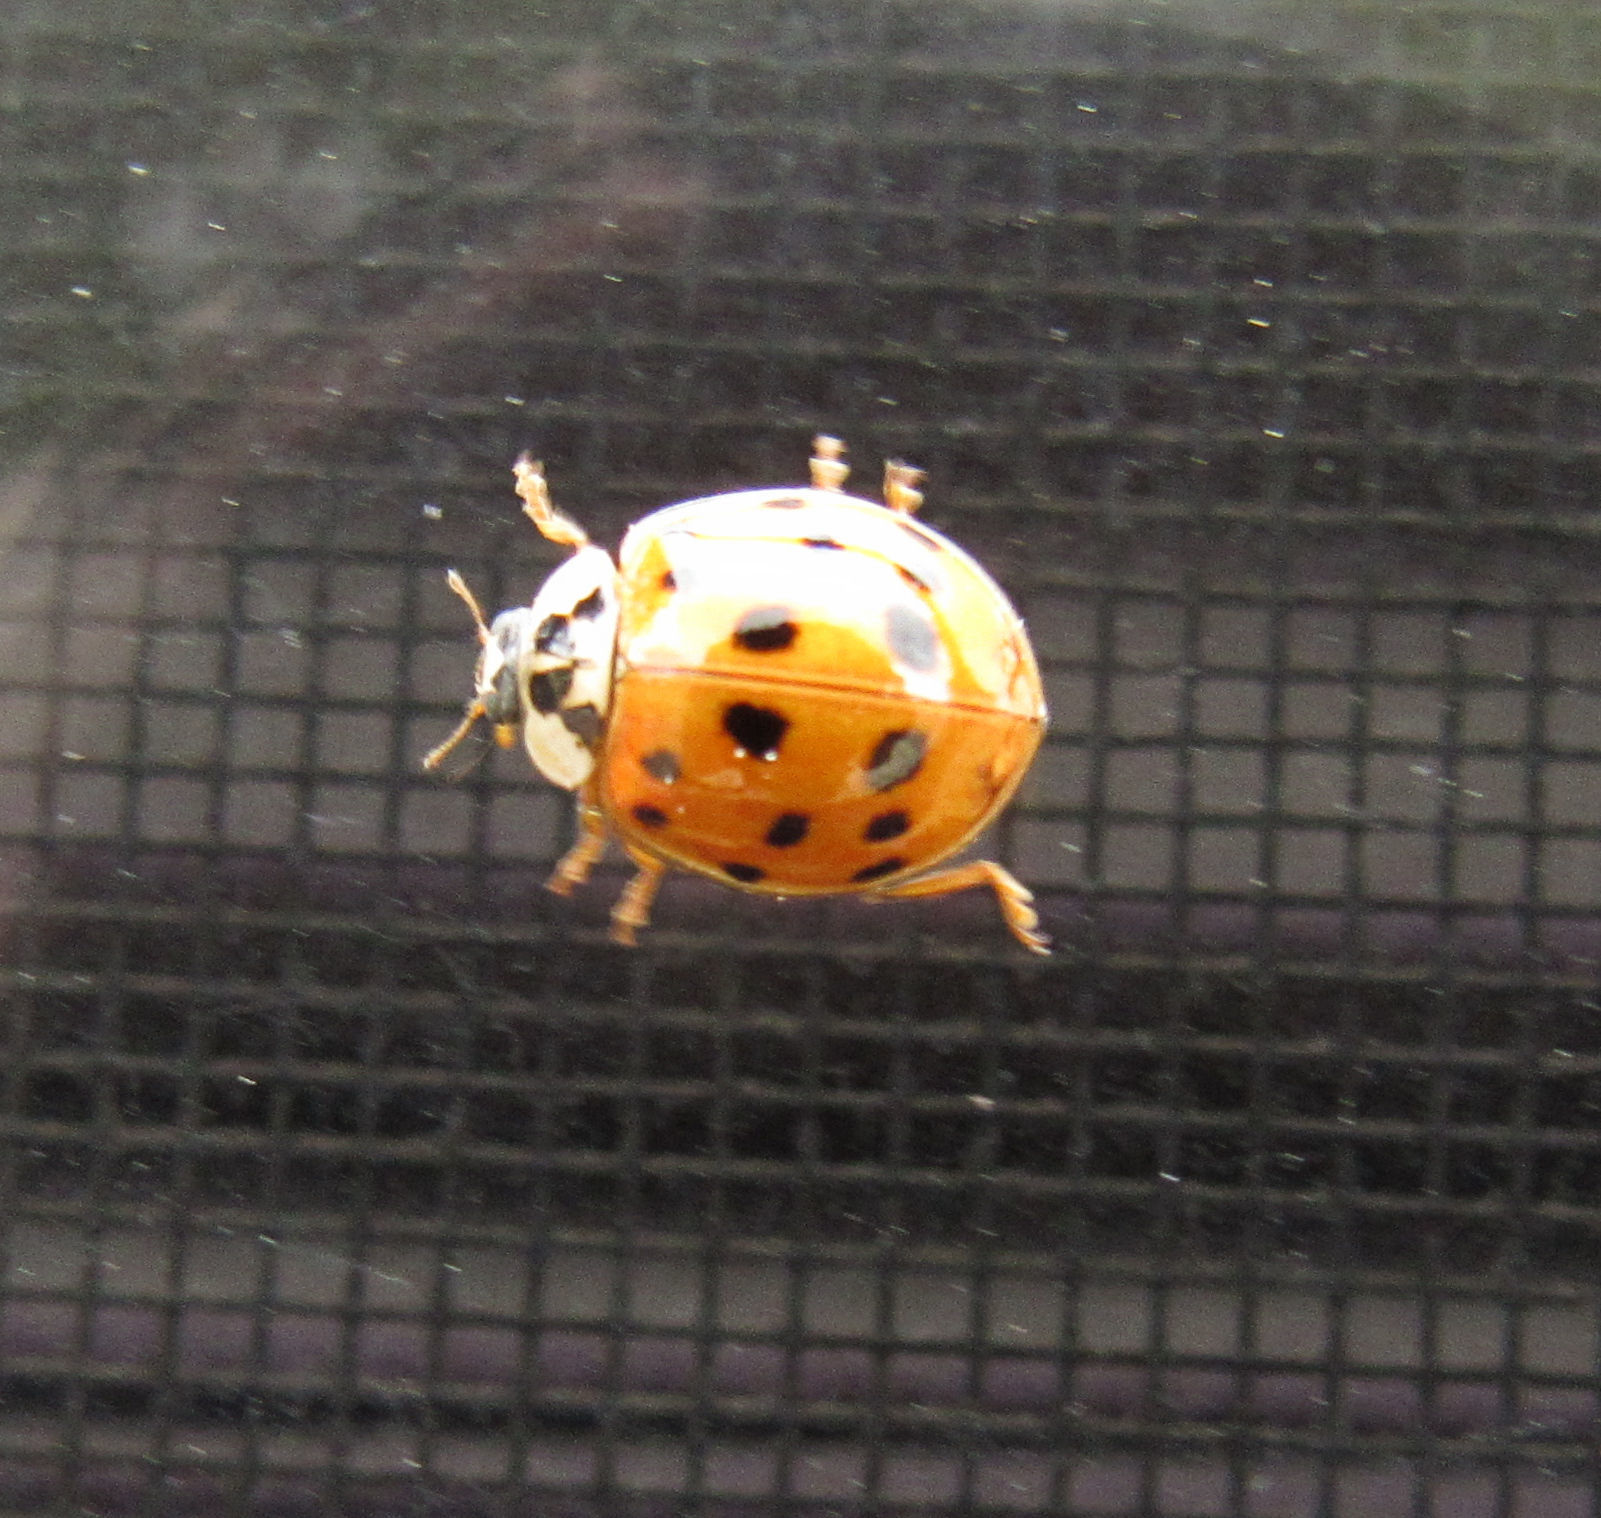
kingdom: Animalia
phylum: Arthropoda
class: Insecta
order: Coleoptera
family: Coccinellidae
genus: Harmonia
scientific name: Harmonia axyridis
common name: Harlequin ladybird
